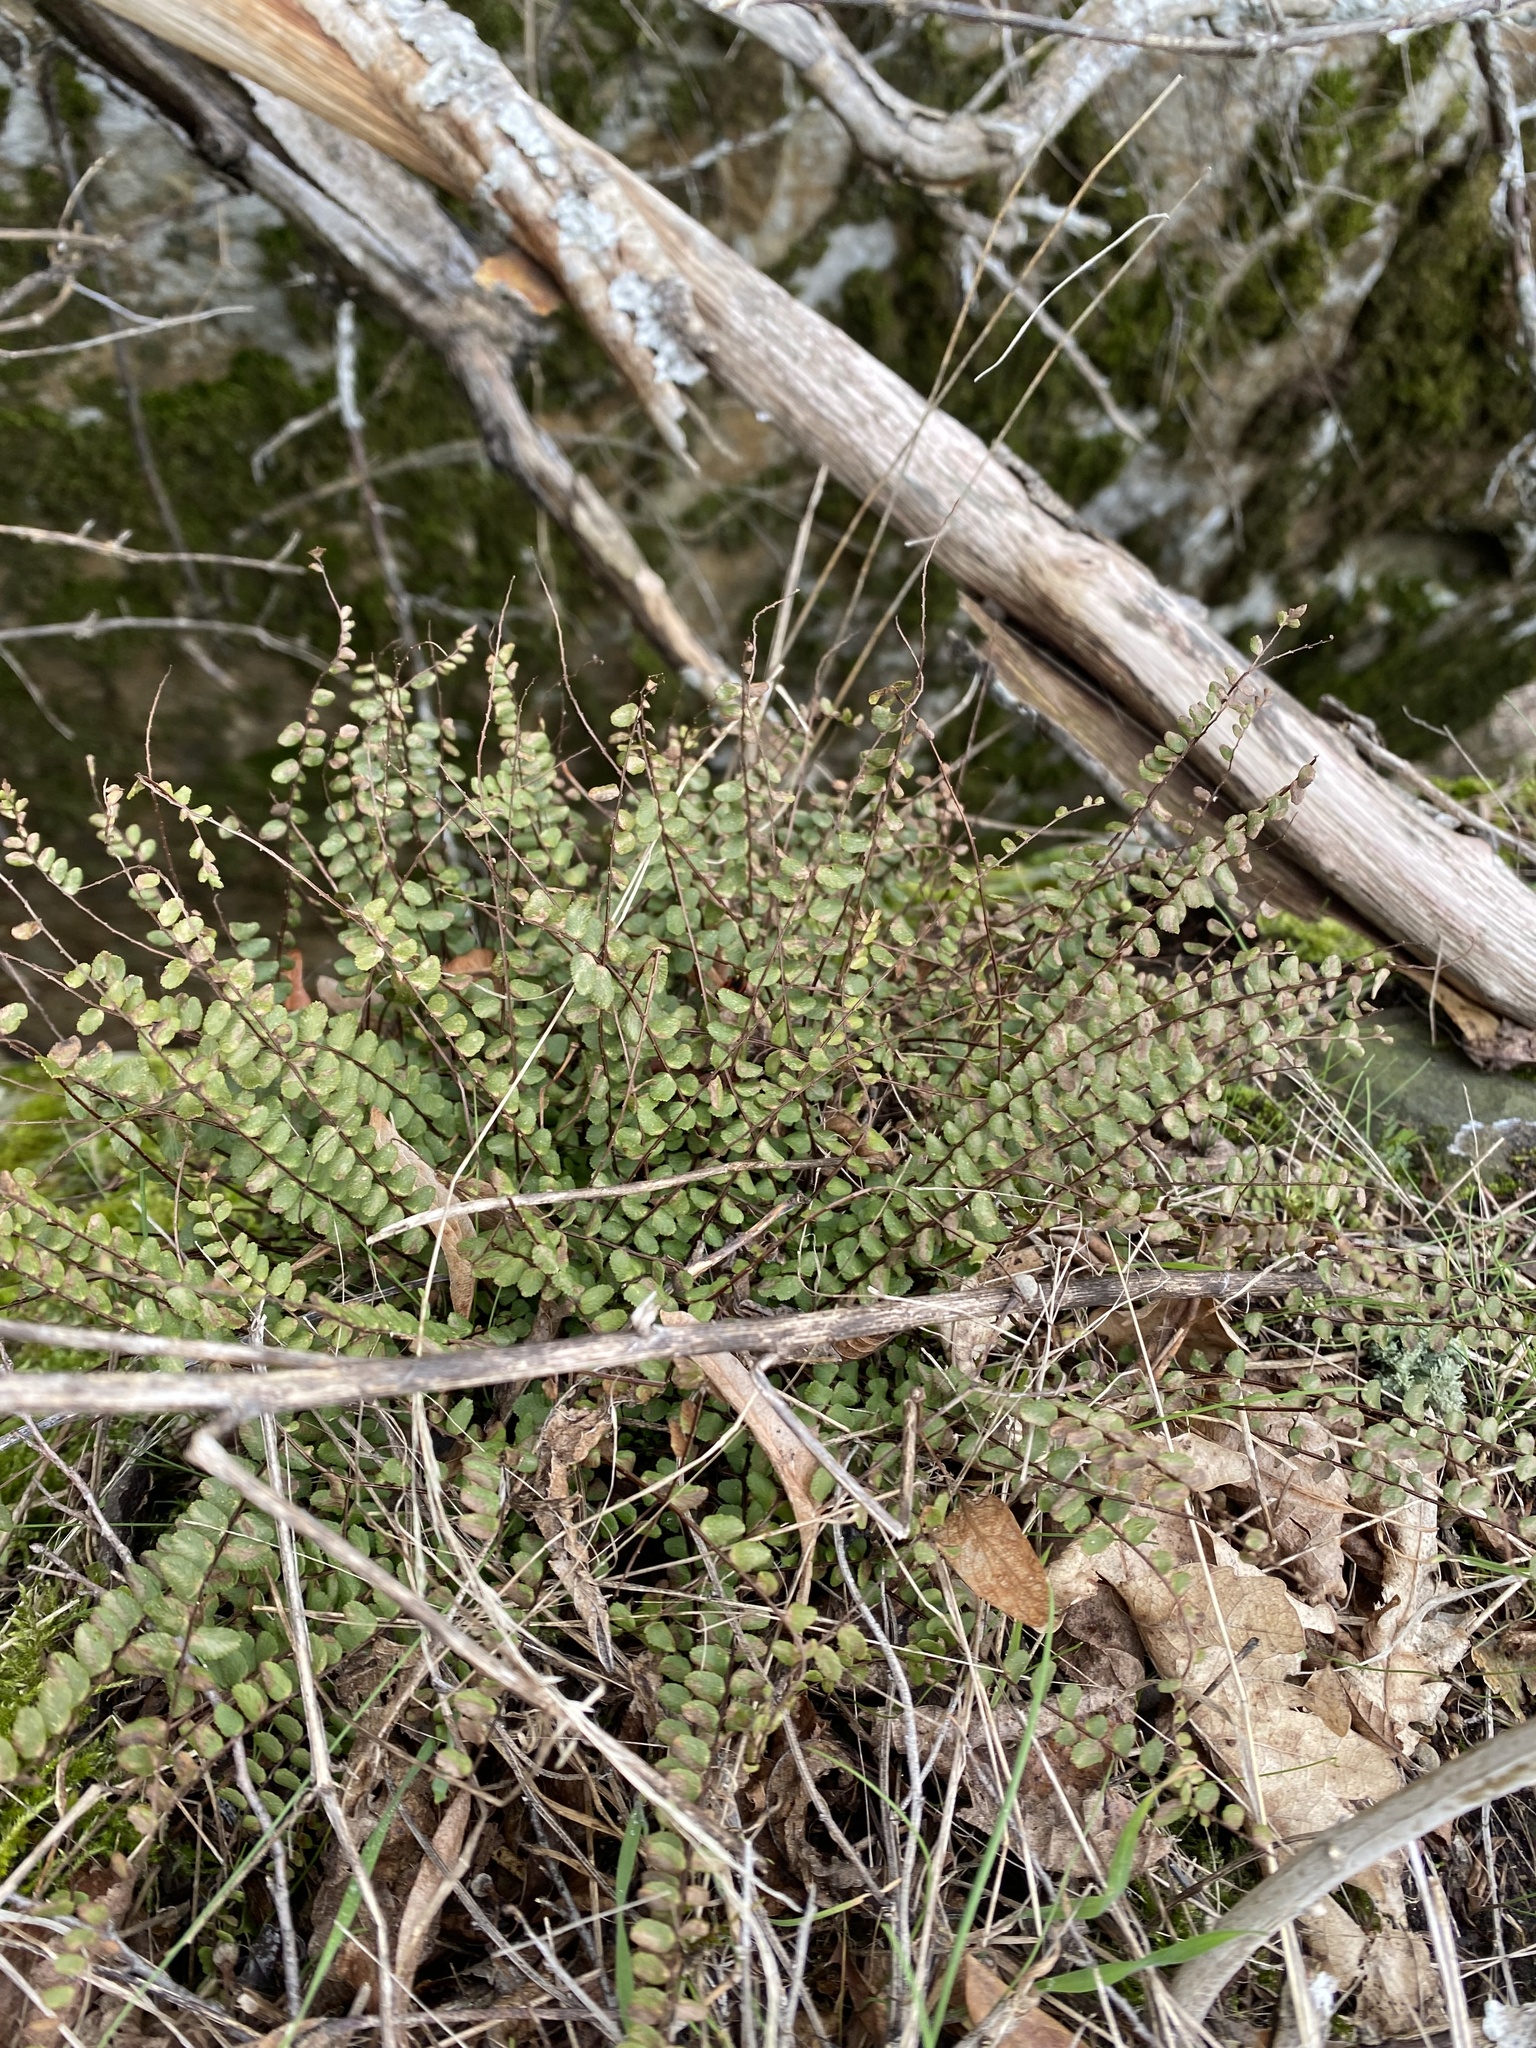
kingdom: Plantae
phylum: Tracheophyta
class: Polypodiopsida
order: Polypodiales
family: Aspleniaceae
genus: Asplenium
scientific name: Asplenium trichomanes
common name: Maidenhair spleenwort
